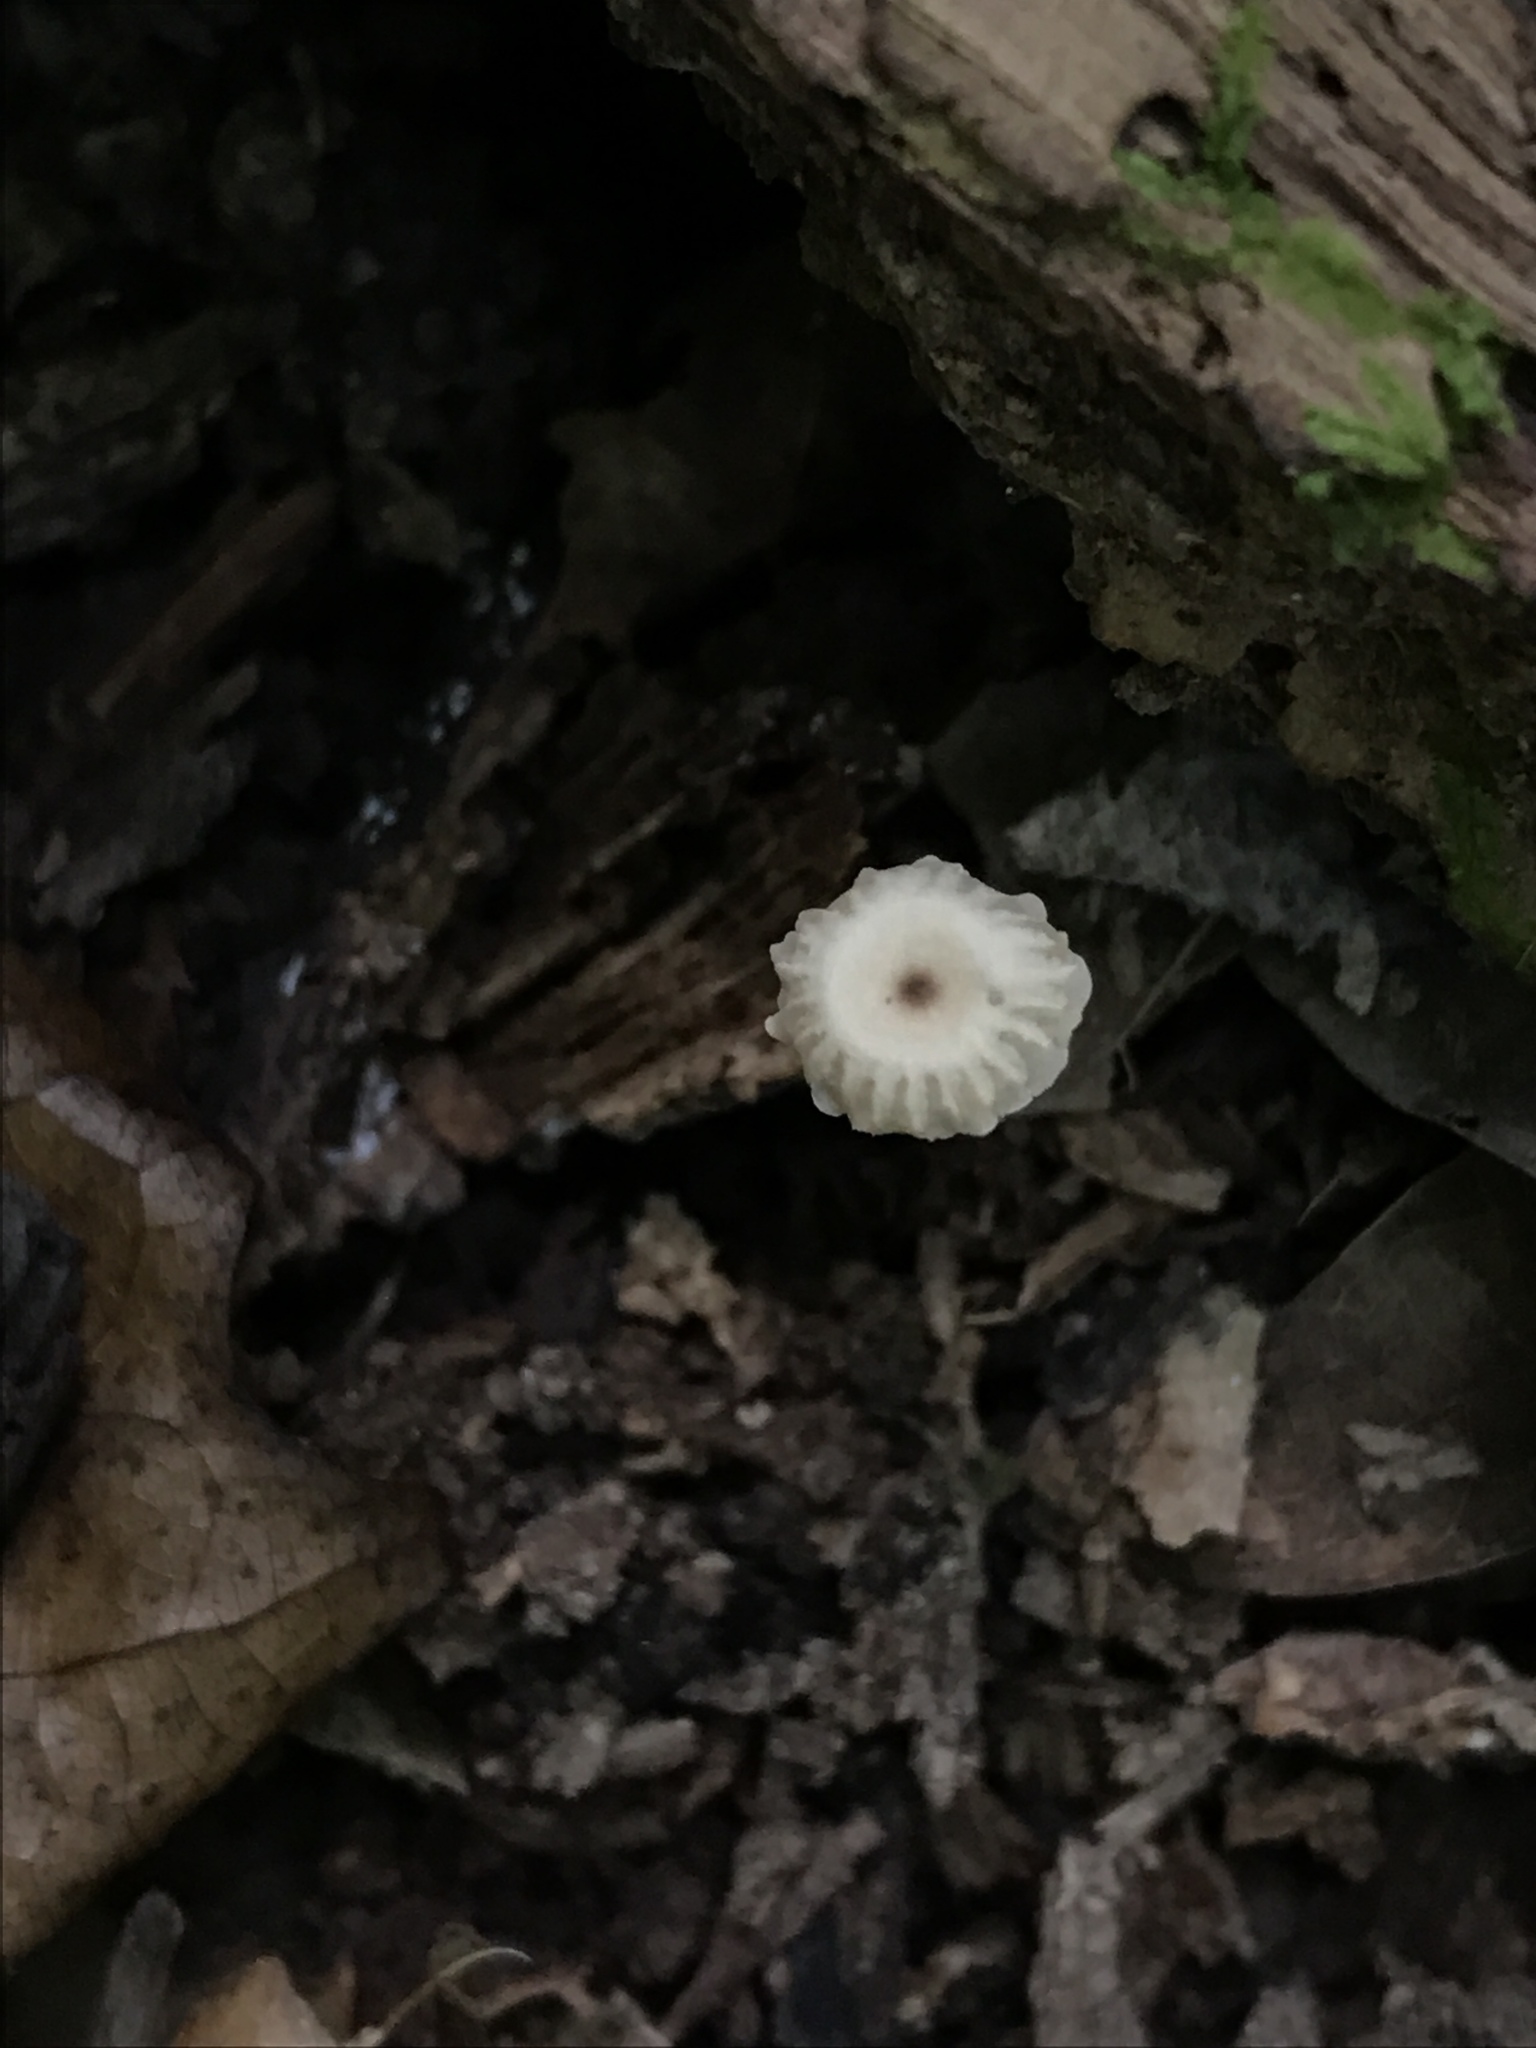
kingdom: Fungi
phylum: Basidiomycota
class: Agaricomycetes
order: Agaricales
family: Marasmiaceae
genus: Marasmius
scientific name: Marasmius rotula
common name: Collared parachute
